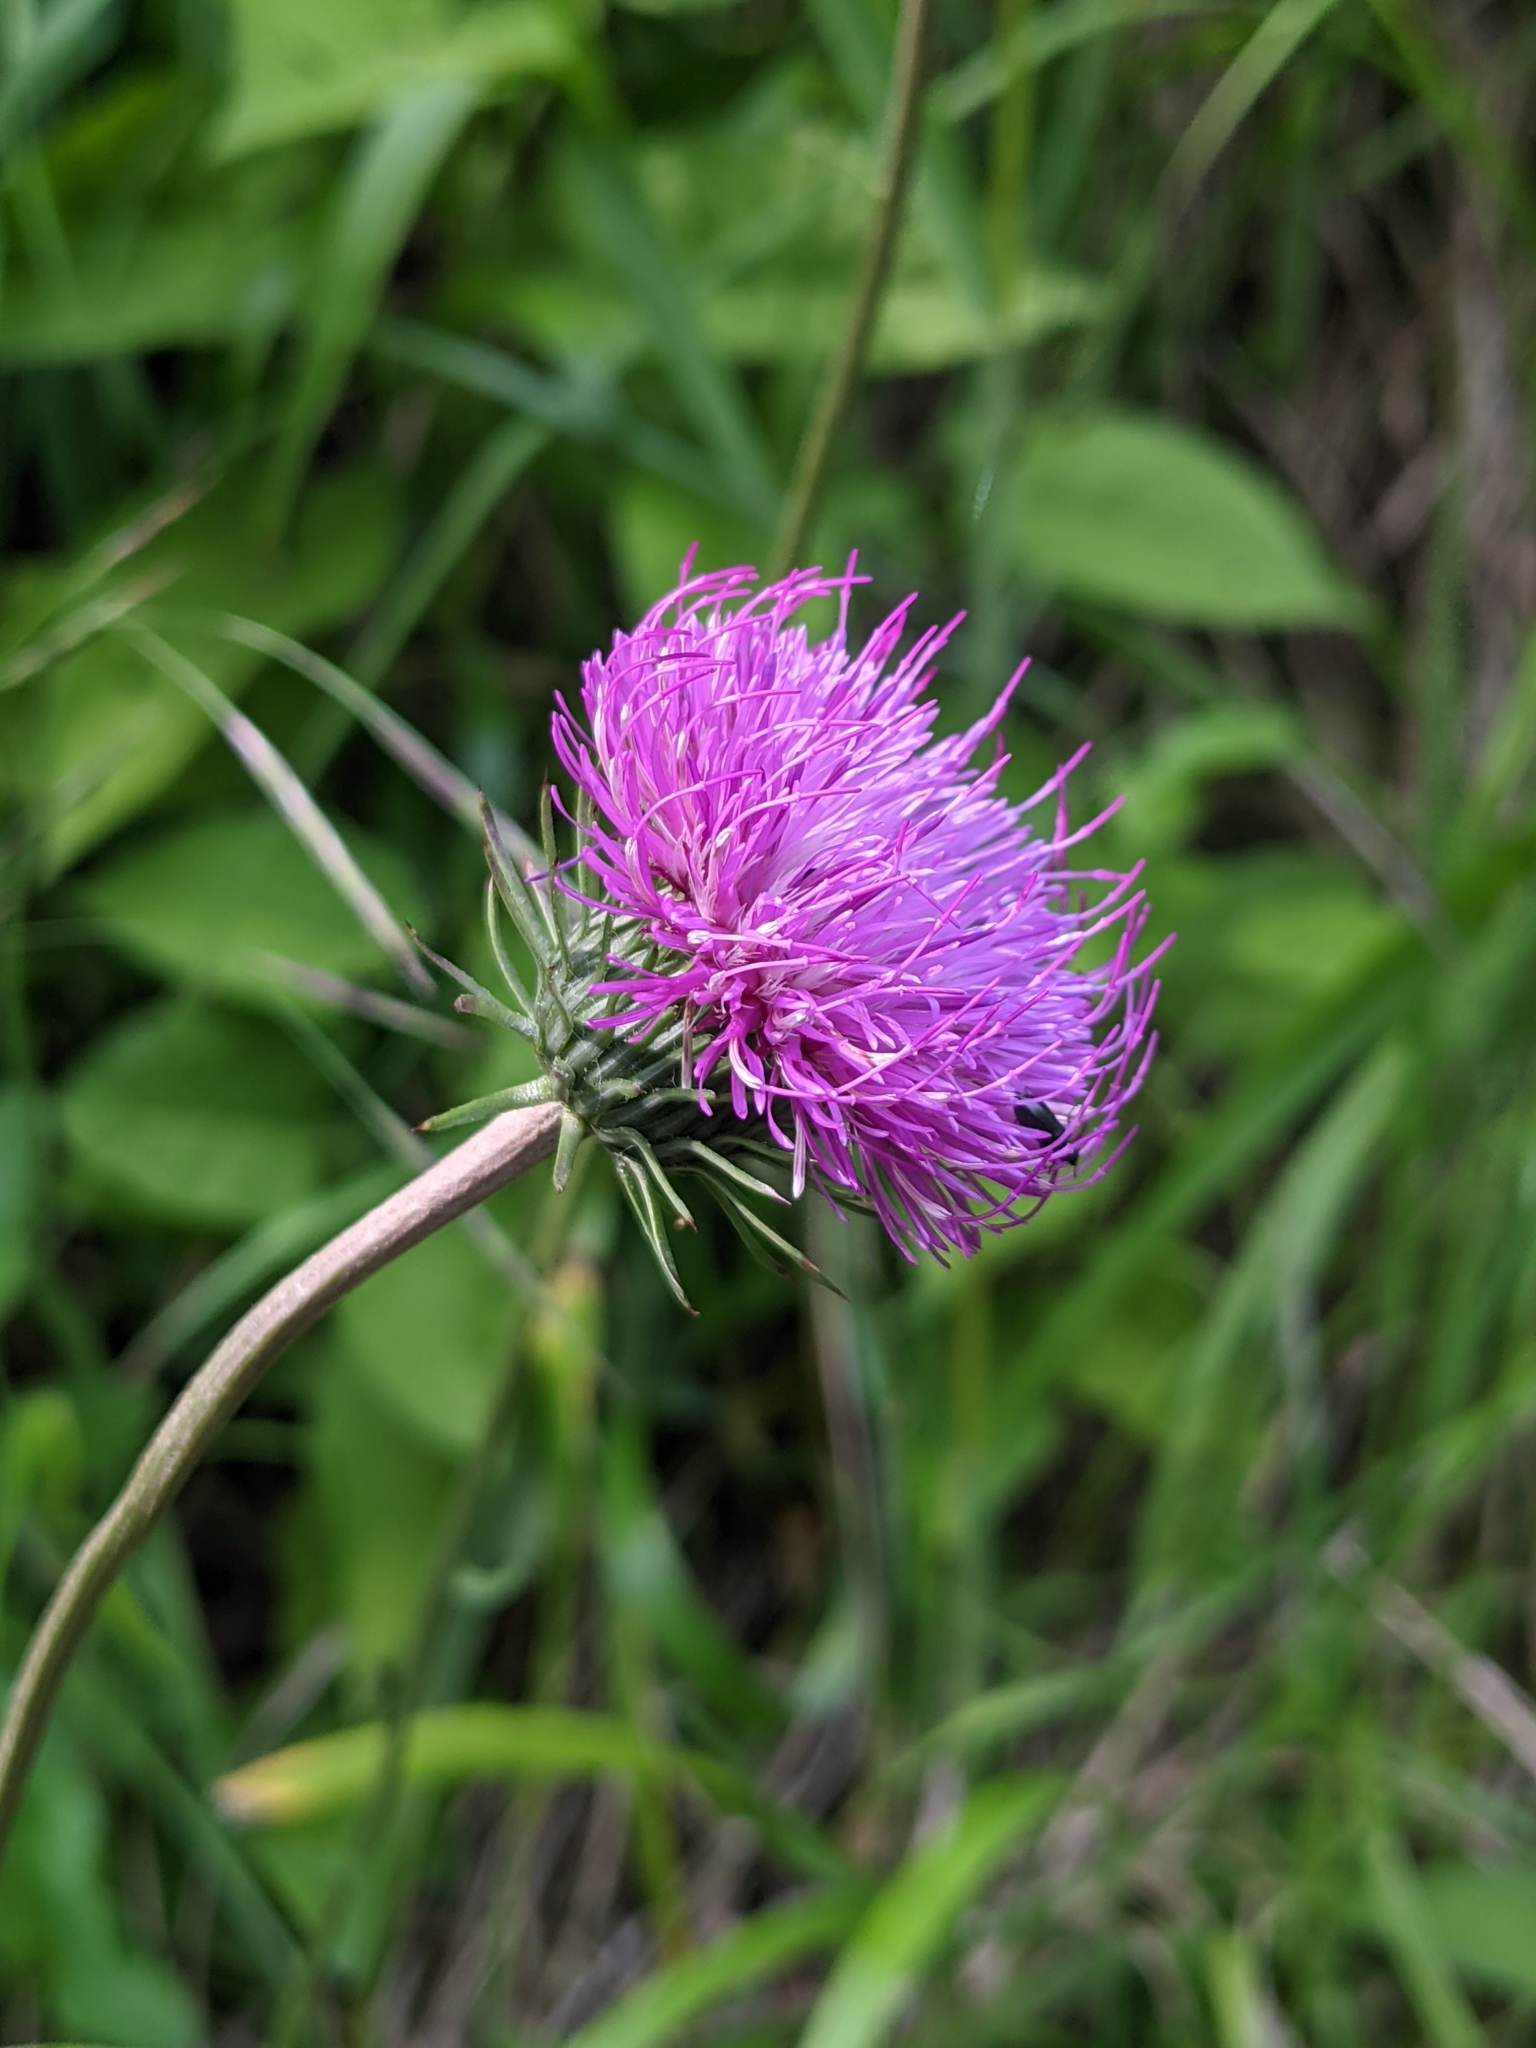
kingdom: Plantae
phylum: Tracheophyta
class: Magnoliopsida
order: Asterales
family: Asteraceae
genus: Carduus
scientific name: Carduus defloratus
